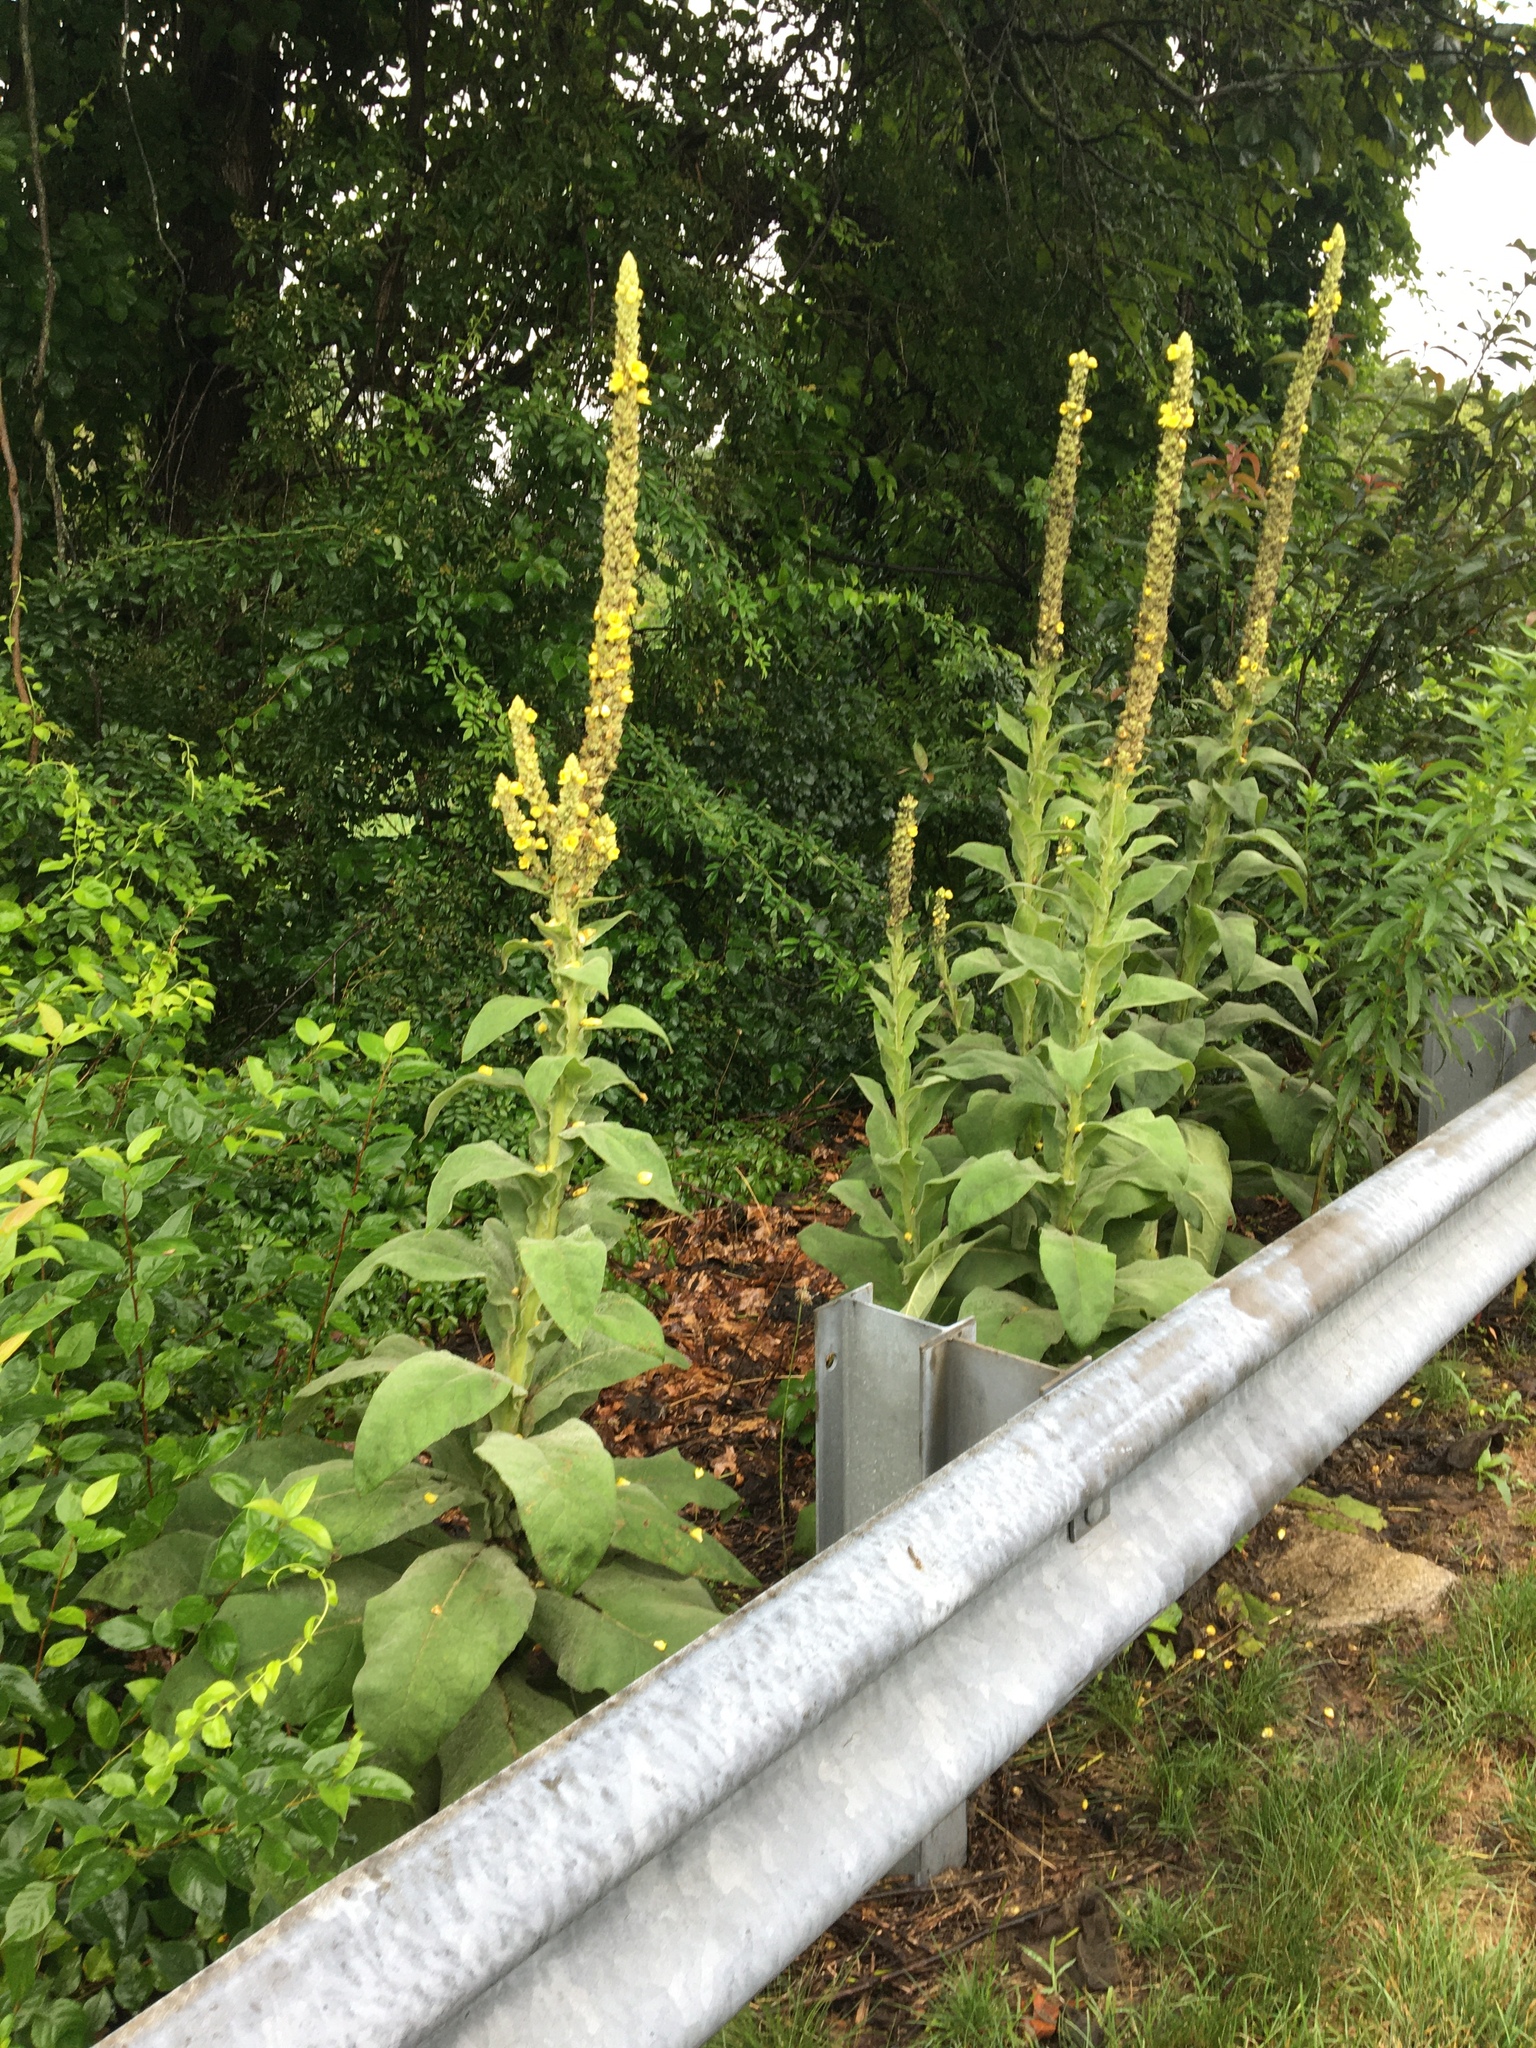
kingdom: Plantae
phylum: Tracheophyta
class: Magnoliopsida
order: Lamiales
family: Scrophulariaceae
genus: Verbascum
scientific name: Verbascum thapsus
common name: Common mullein
